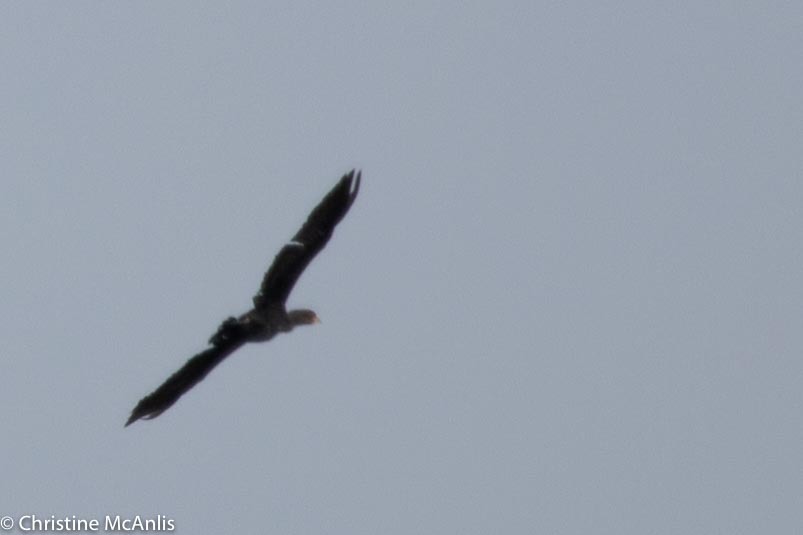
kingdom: Animalia
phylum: Chordata
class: Aves
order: Suliformes
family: Phalacrocoracidae
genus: Phalacrocorax
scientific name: Phalacrocorax auritus
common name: Double-crested cormorant
